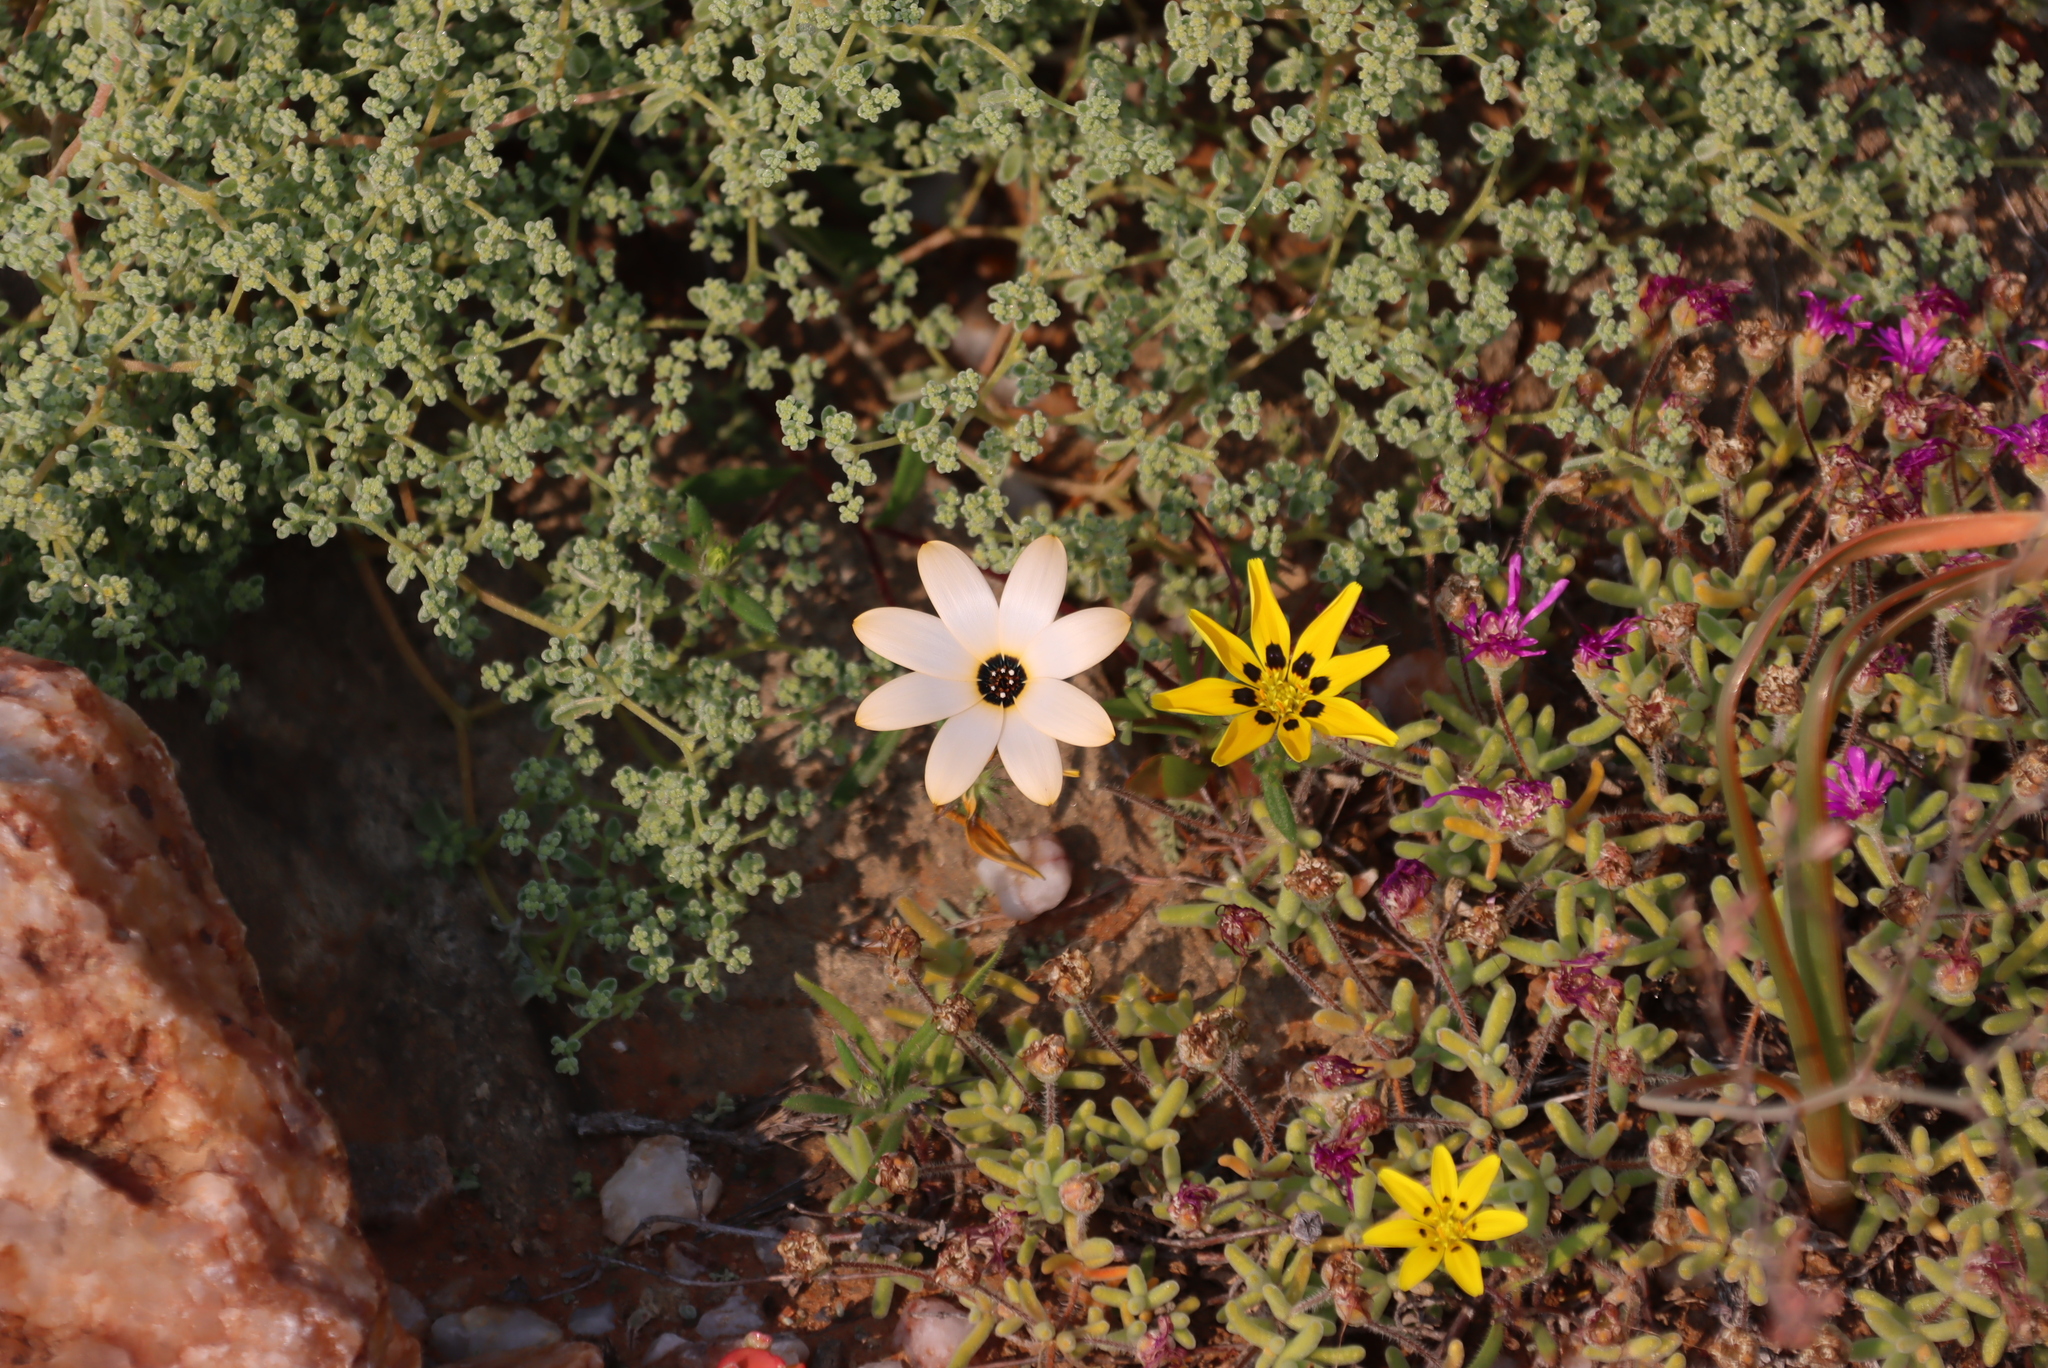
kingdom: Plantae
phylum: Tracheophyta
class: Magnoliopsida
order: Asterales
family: Asteraceae
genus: Dimorphotheca
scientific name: Dimorphotheca pinnata
